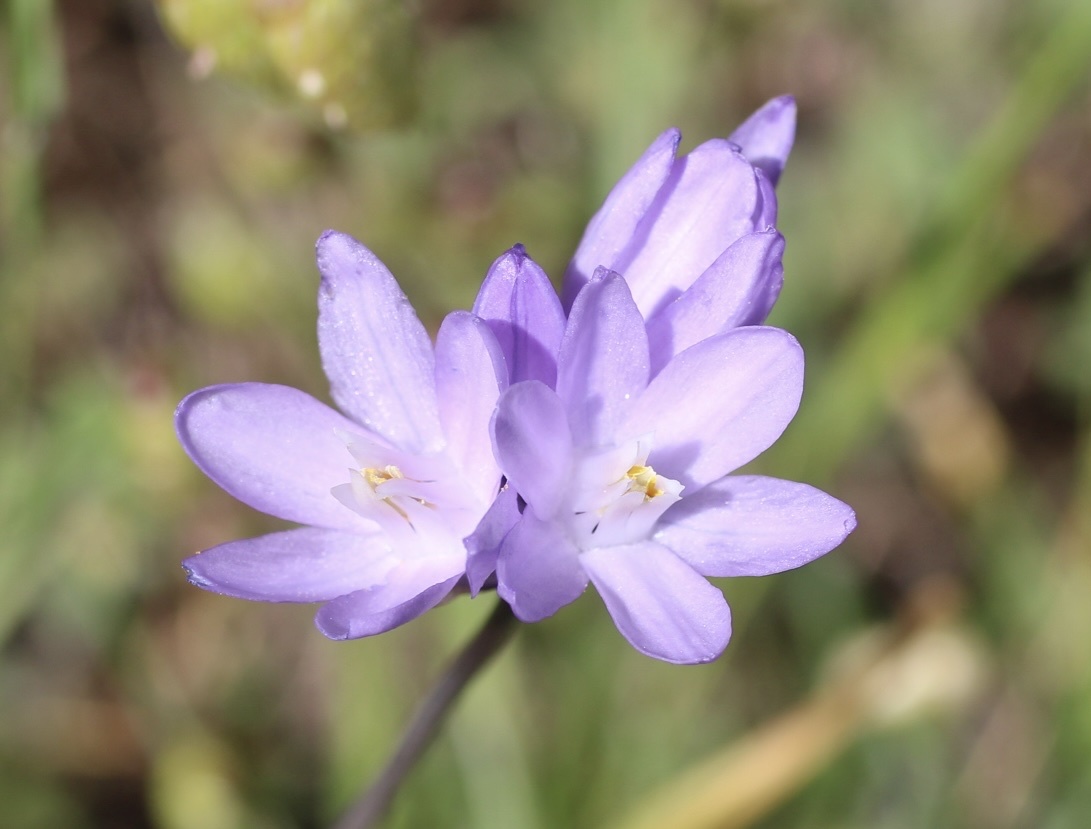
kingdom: Plantae
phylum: Tracheophyta
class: Liliopsida
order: Asparagales
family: Asparagaceae
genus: Dipterostemon
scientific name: Dipterostemon capitatus
